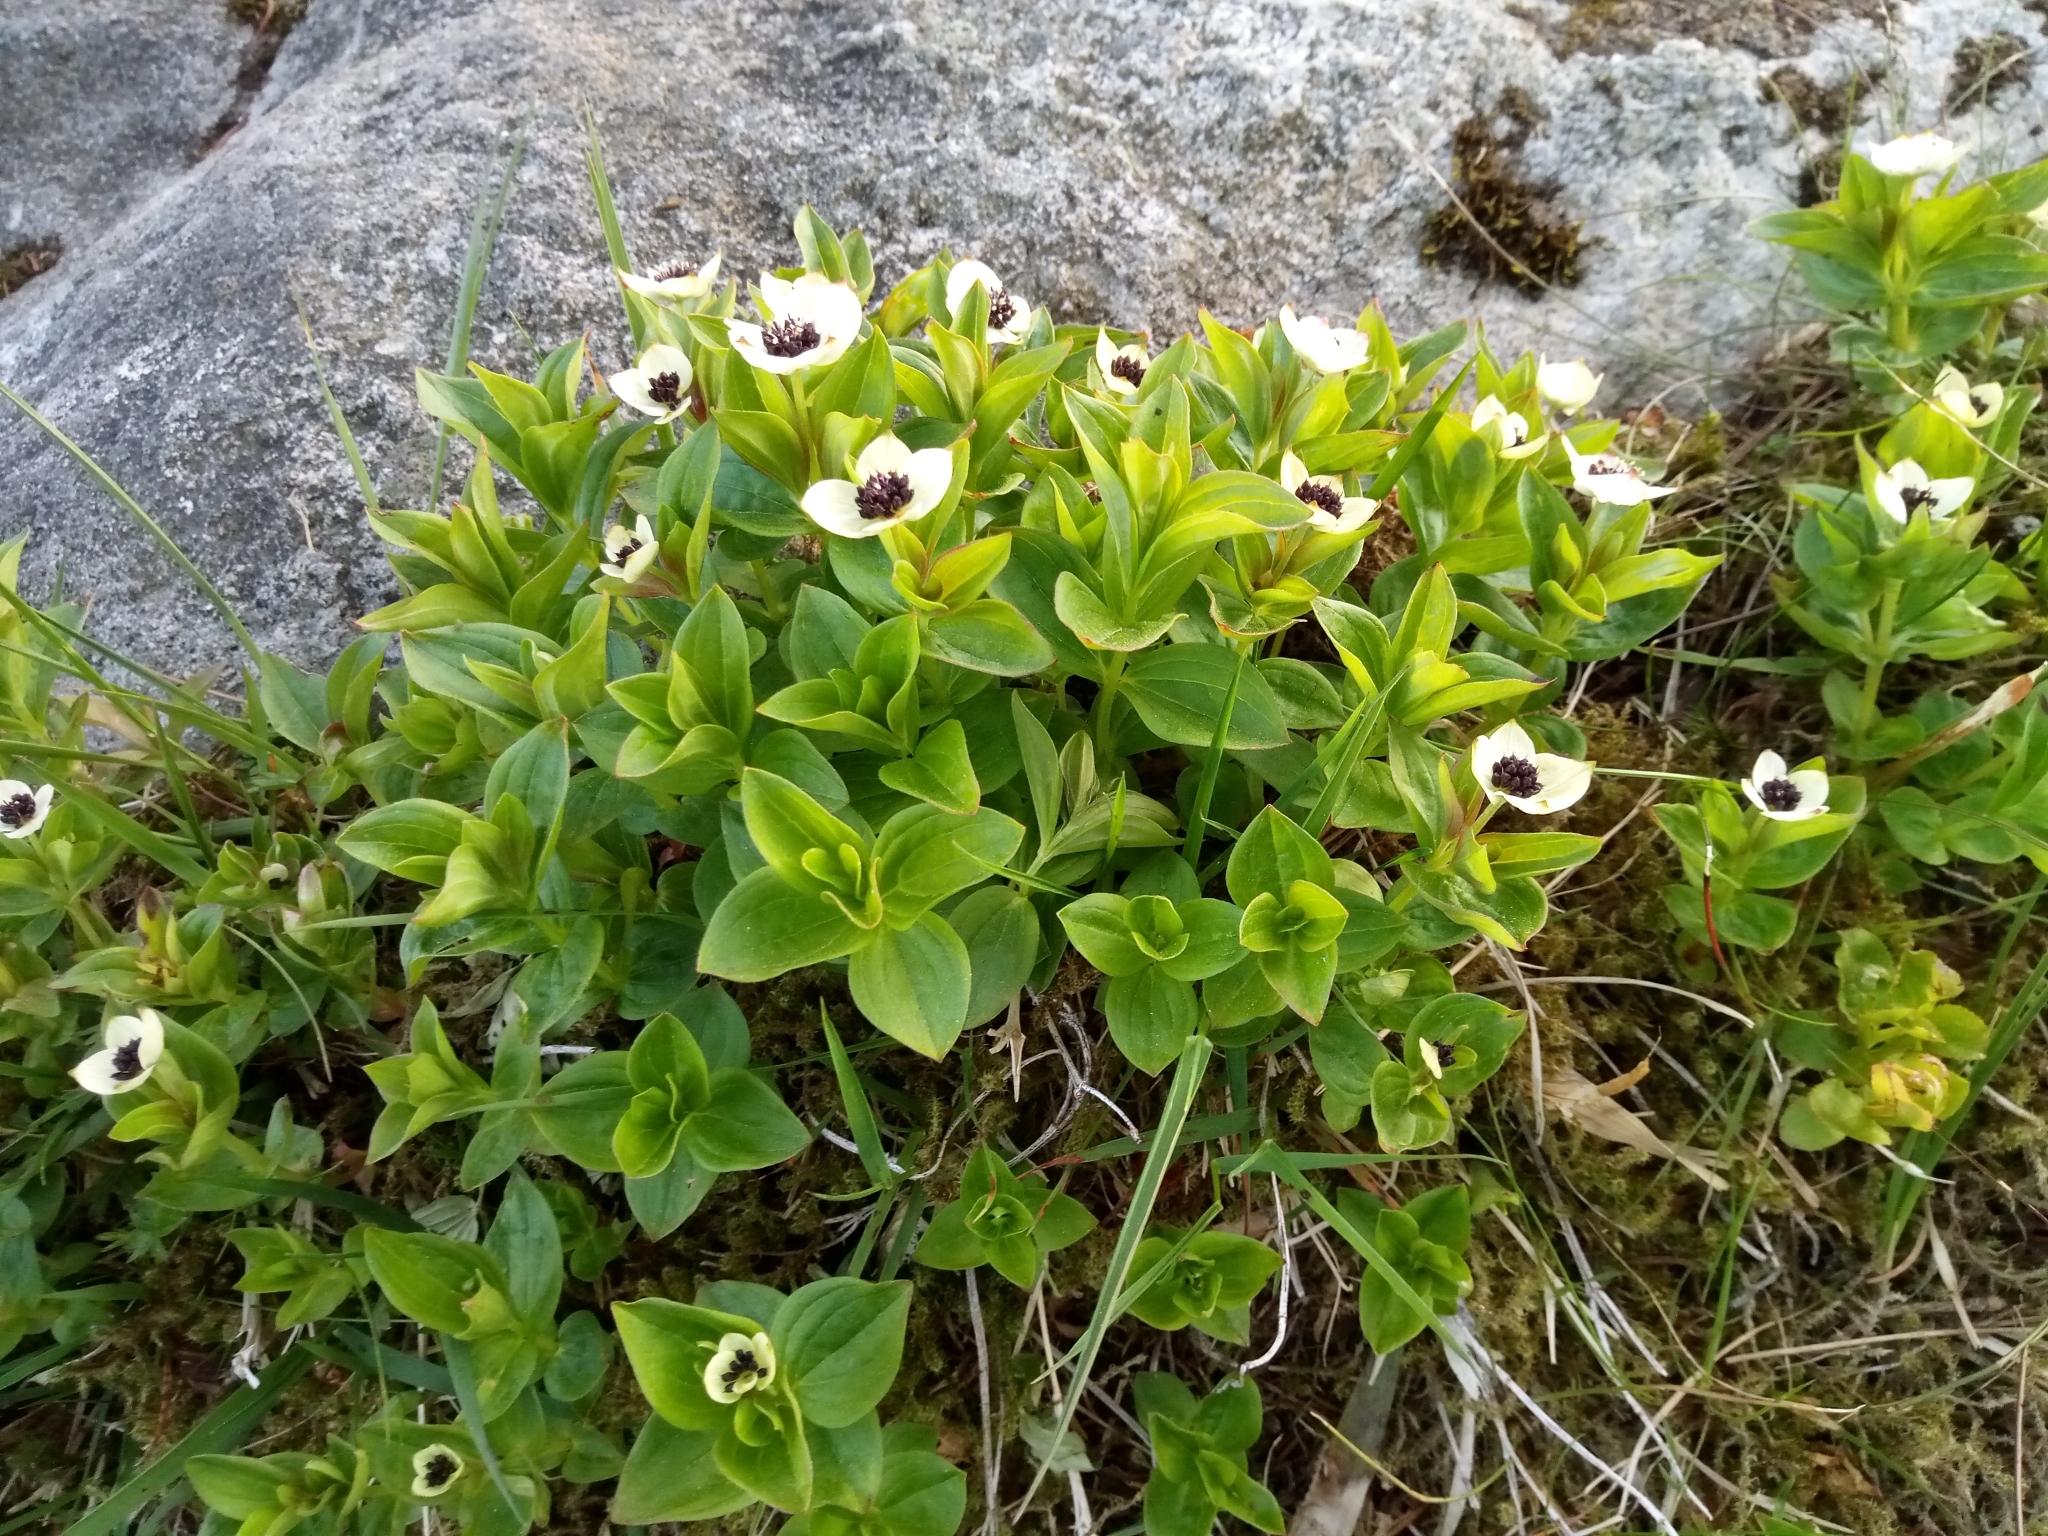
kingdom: Plantae
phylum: Tracheophyta
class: Magnoliopsida
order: Cornales
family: Cornaceae
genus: Cornus
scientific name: Cornus suecica
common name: Dwarf cornel
